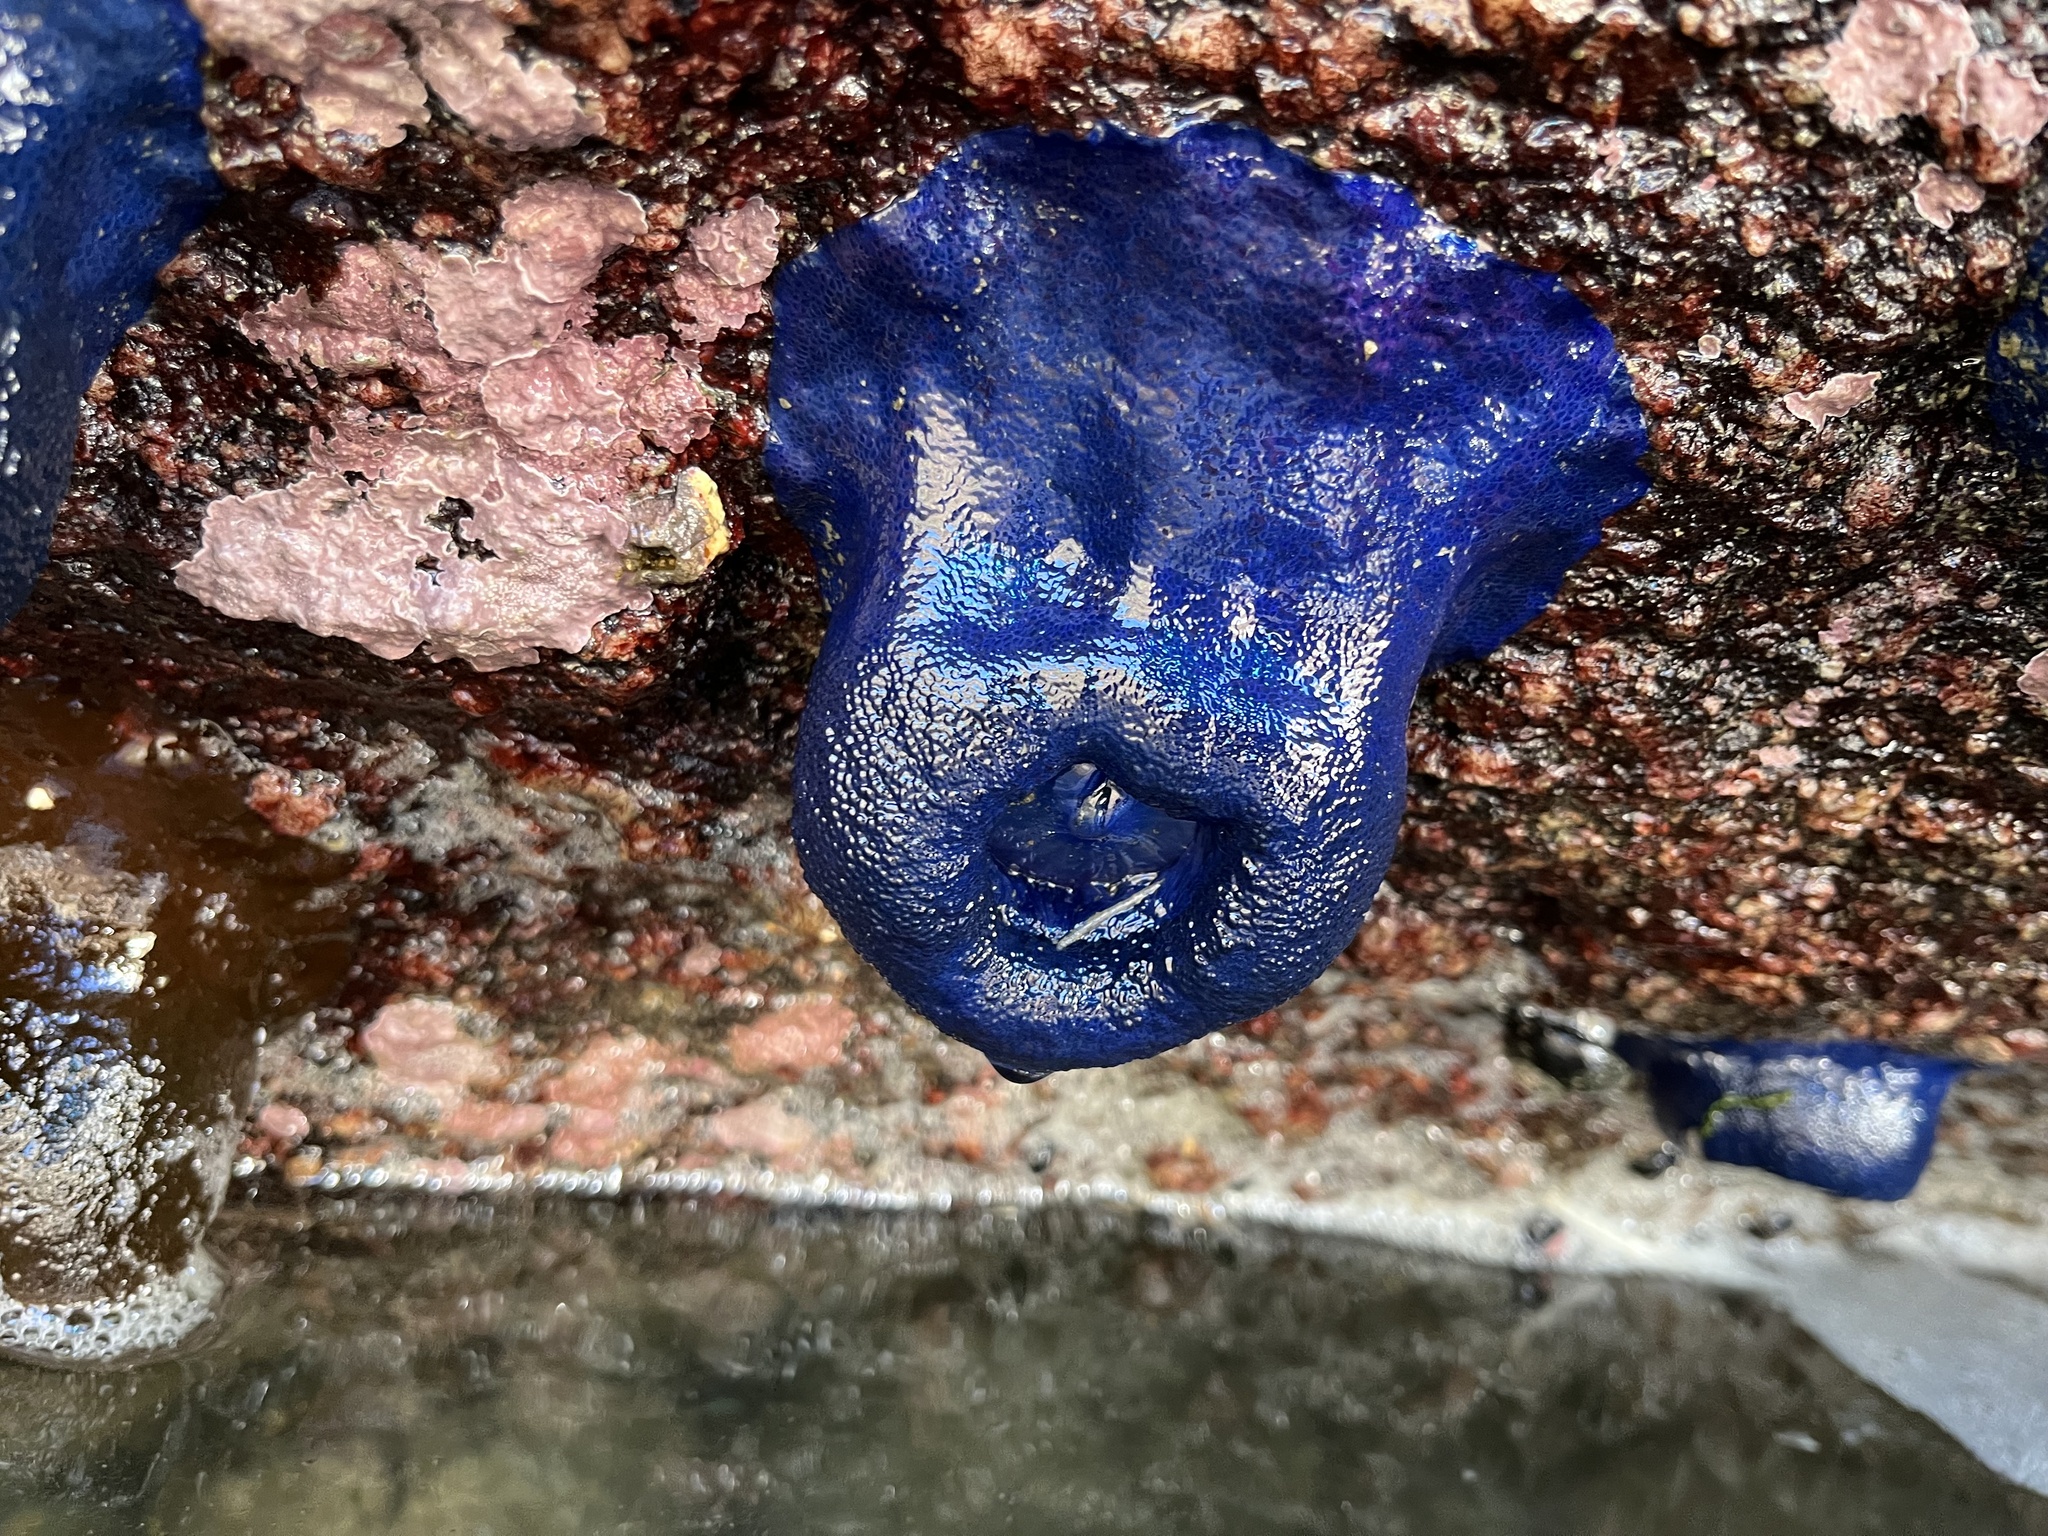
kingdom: Animalia
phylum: Cnidaria
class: Anthozoa
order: Actiniaria
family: Actiniidae
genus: Phymactis
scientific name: Phymactis papillosa
